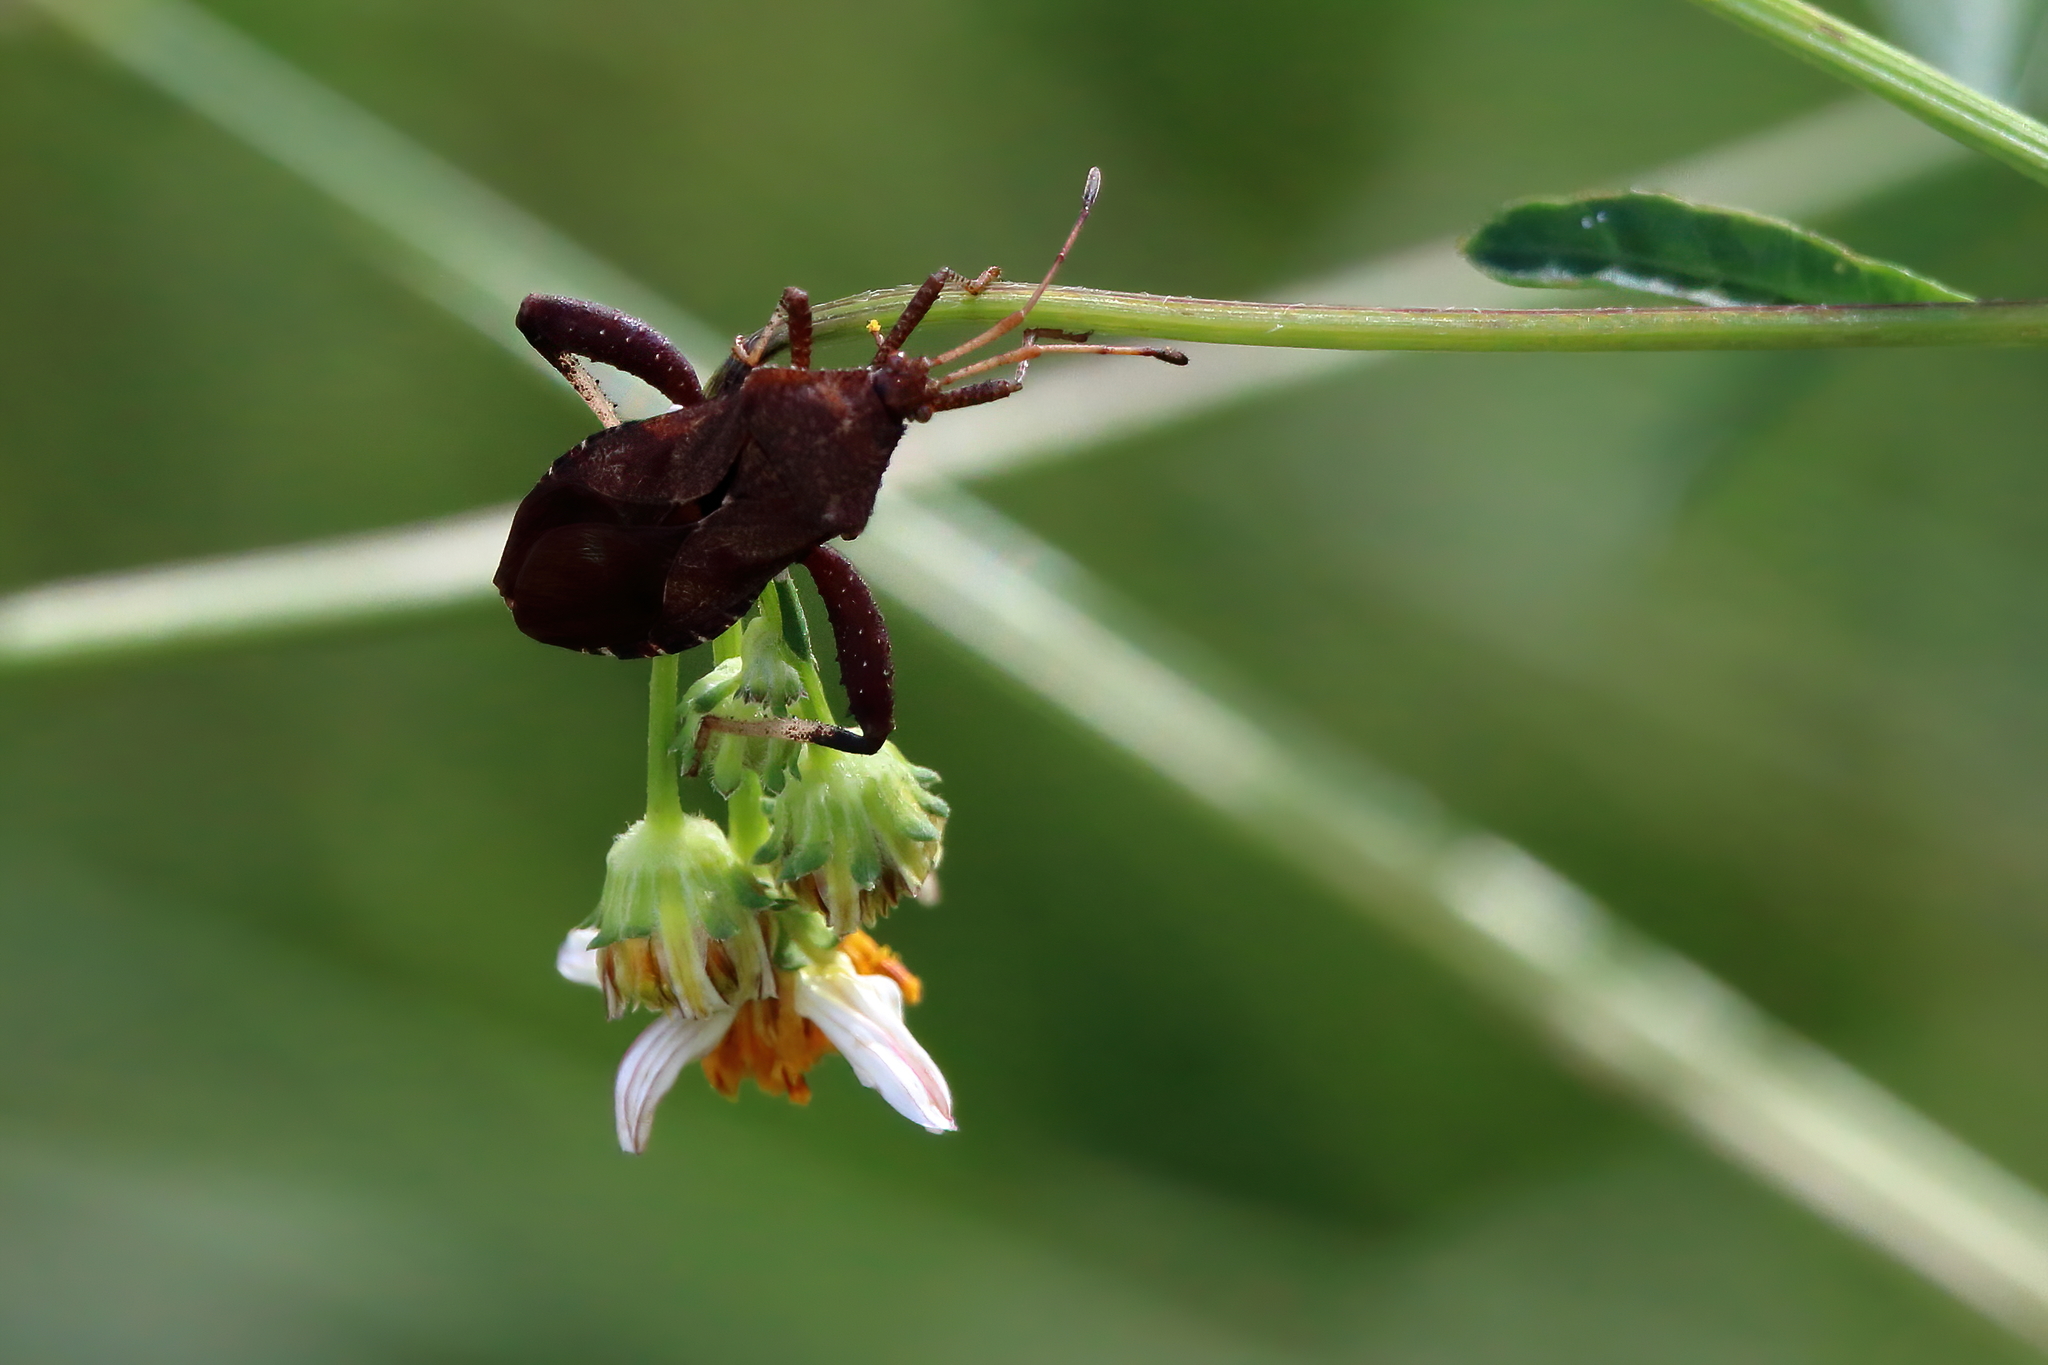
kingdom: Animalia
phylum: Arthropoda
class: Insecta
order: Hemiptera
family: Coreidae
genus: Euthochtha
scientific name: Euthochtha galeator
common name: Helmeted squash bug
